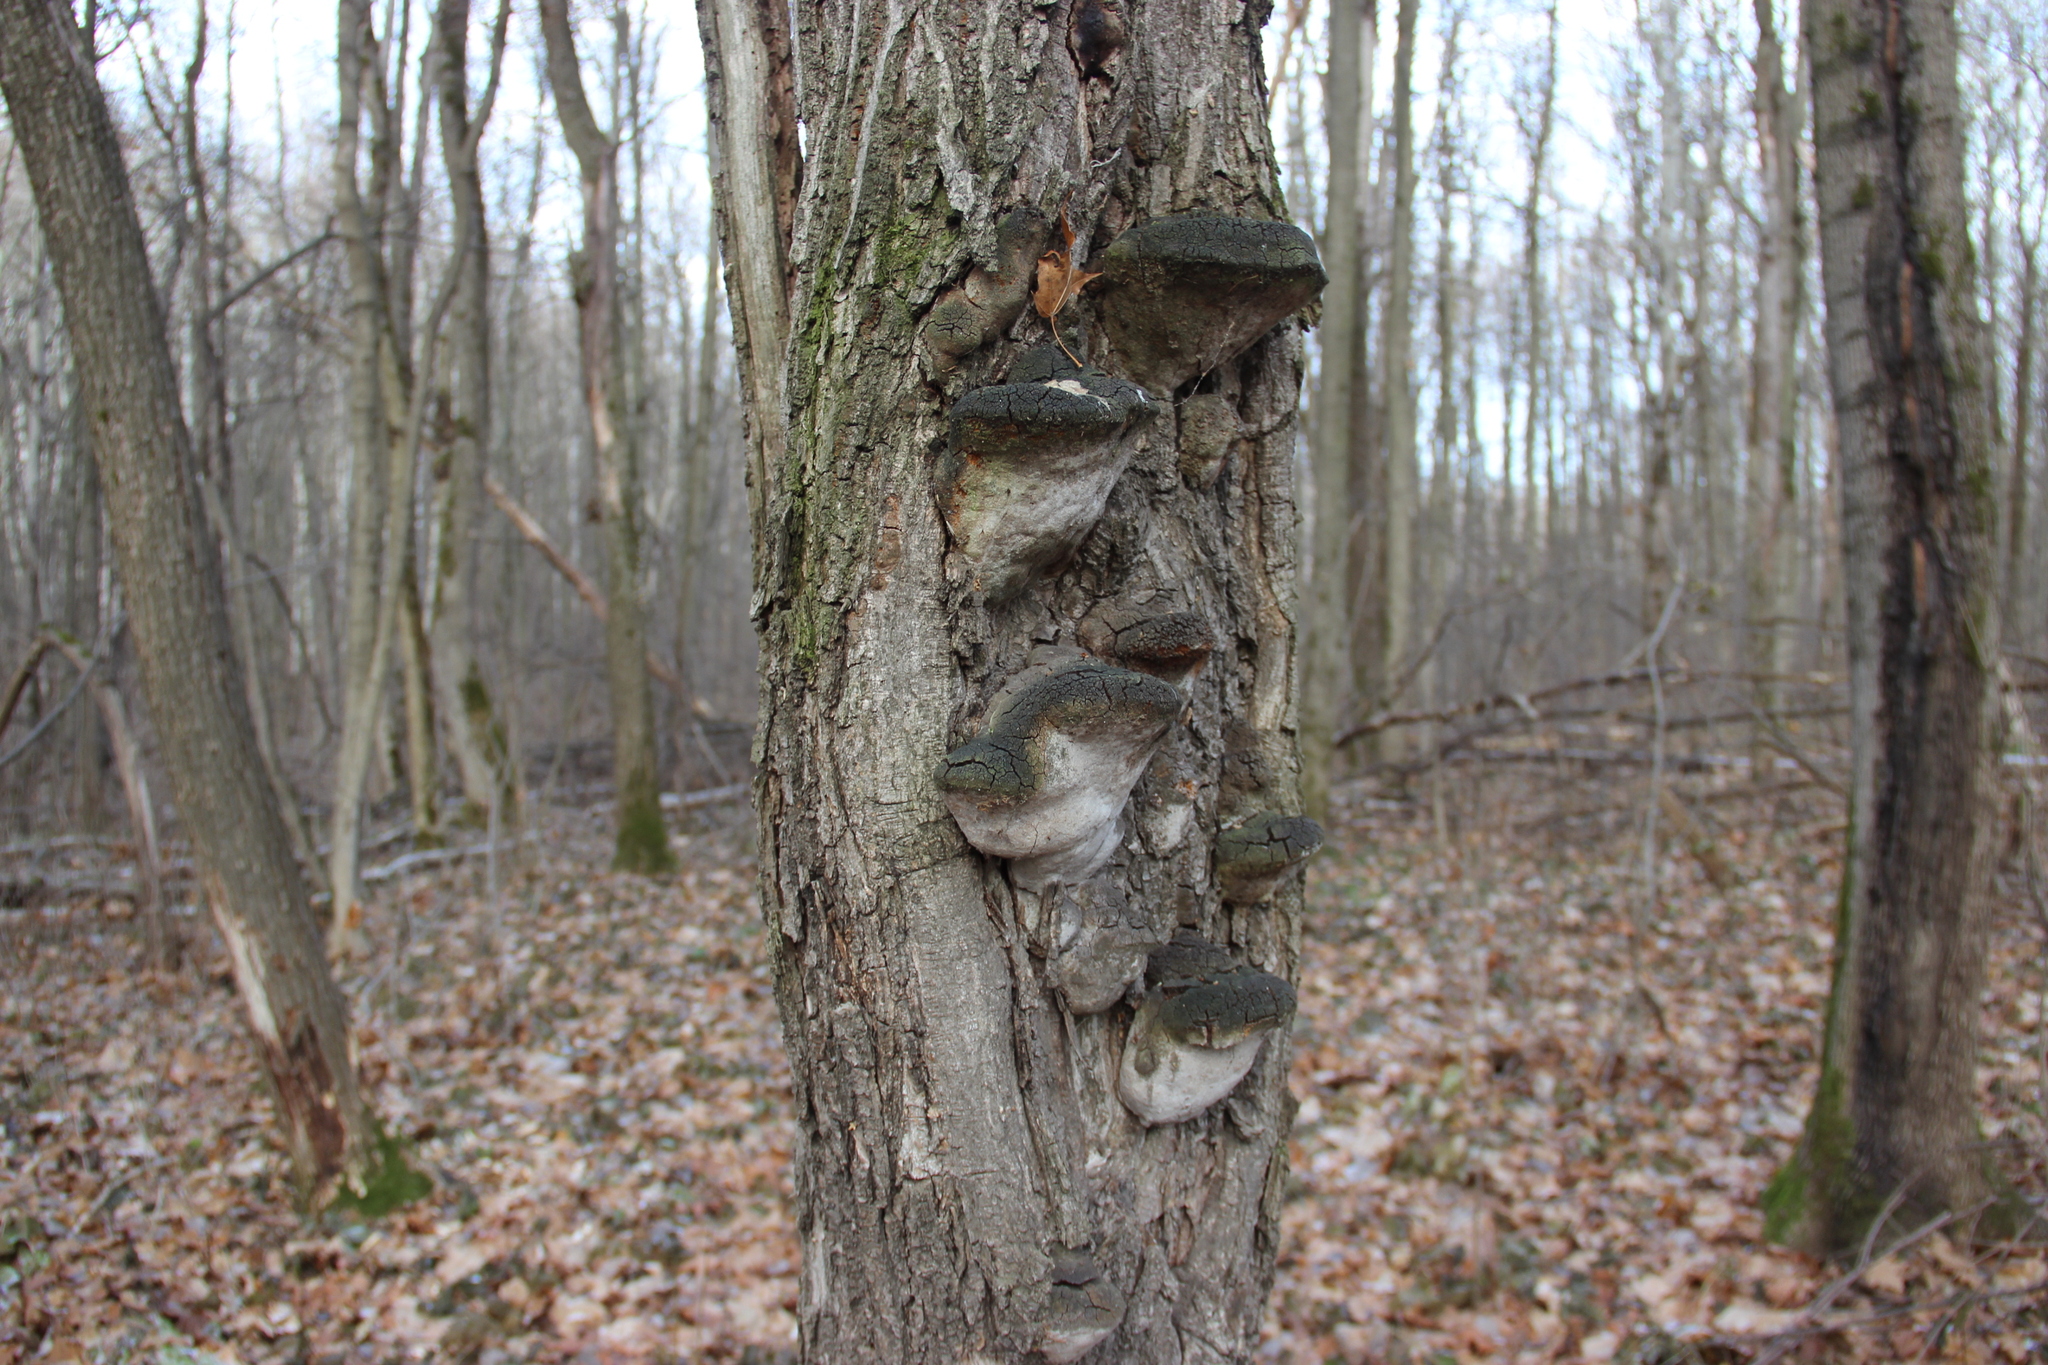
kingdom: Fungi
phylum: Basidiomycota
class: Agaricomycetes
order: Hymenochaetales
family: Hymenochaetaceae
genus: Fomitiporia
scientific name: Fomitiporia robusta
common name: Robust bracket
